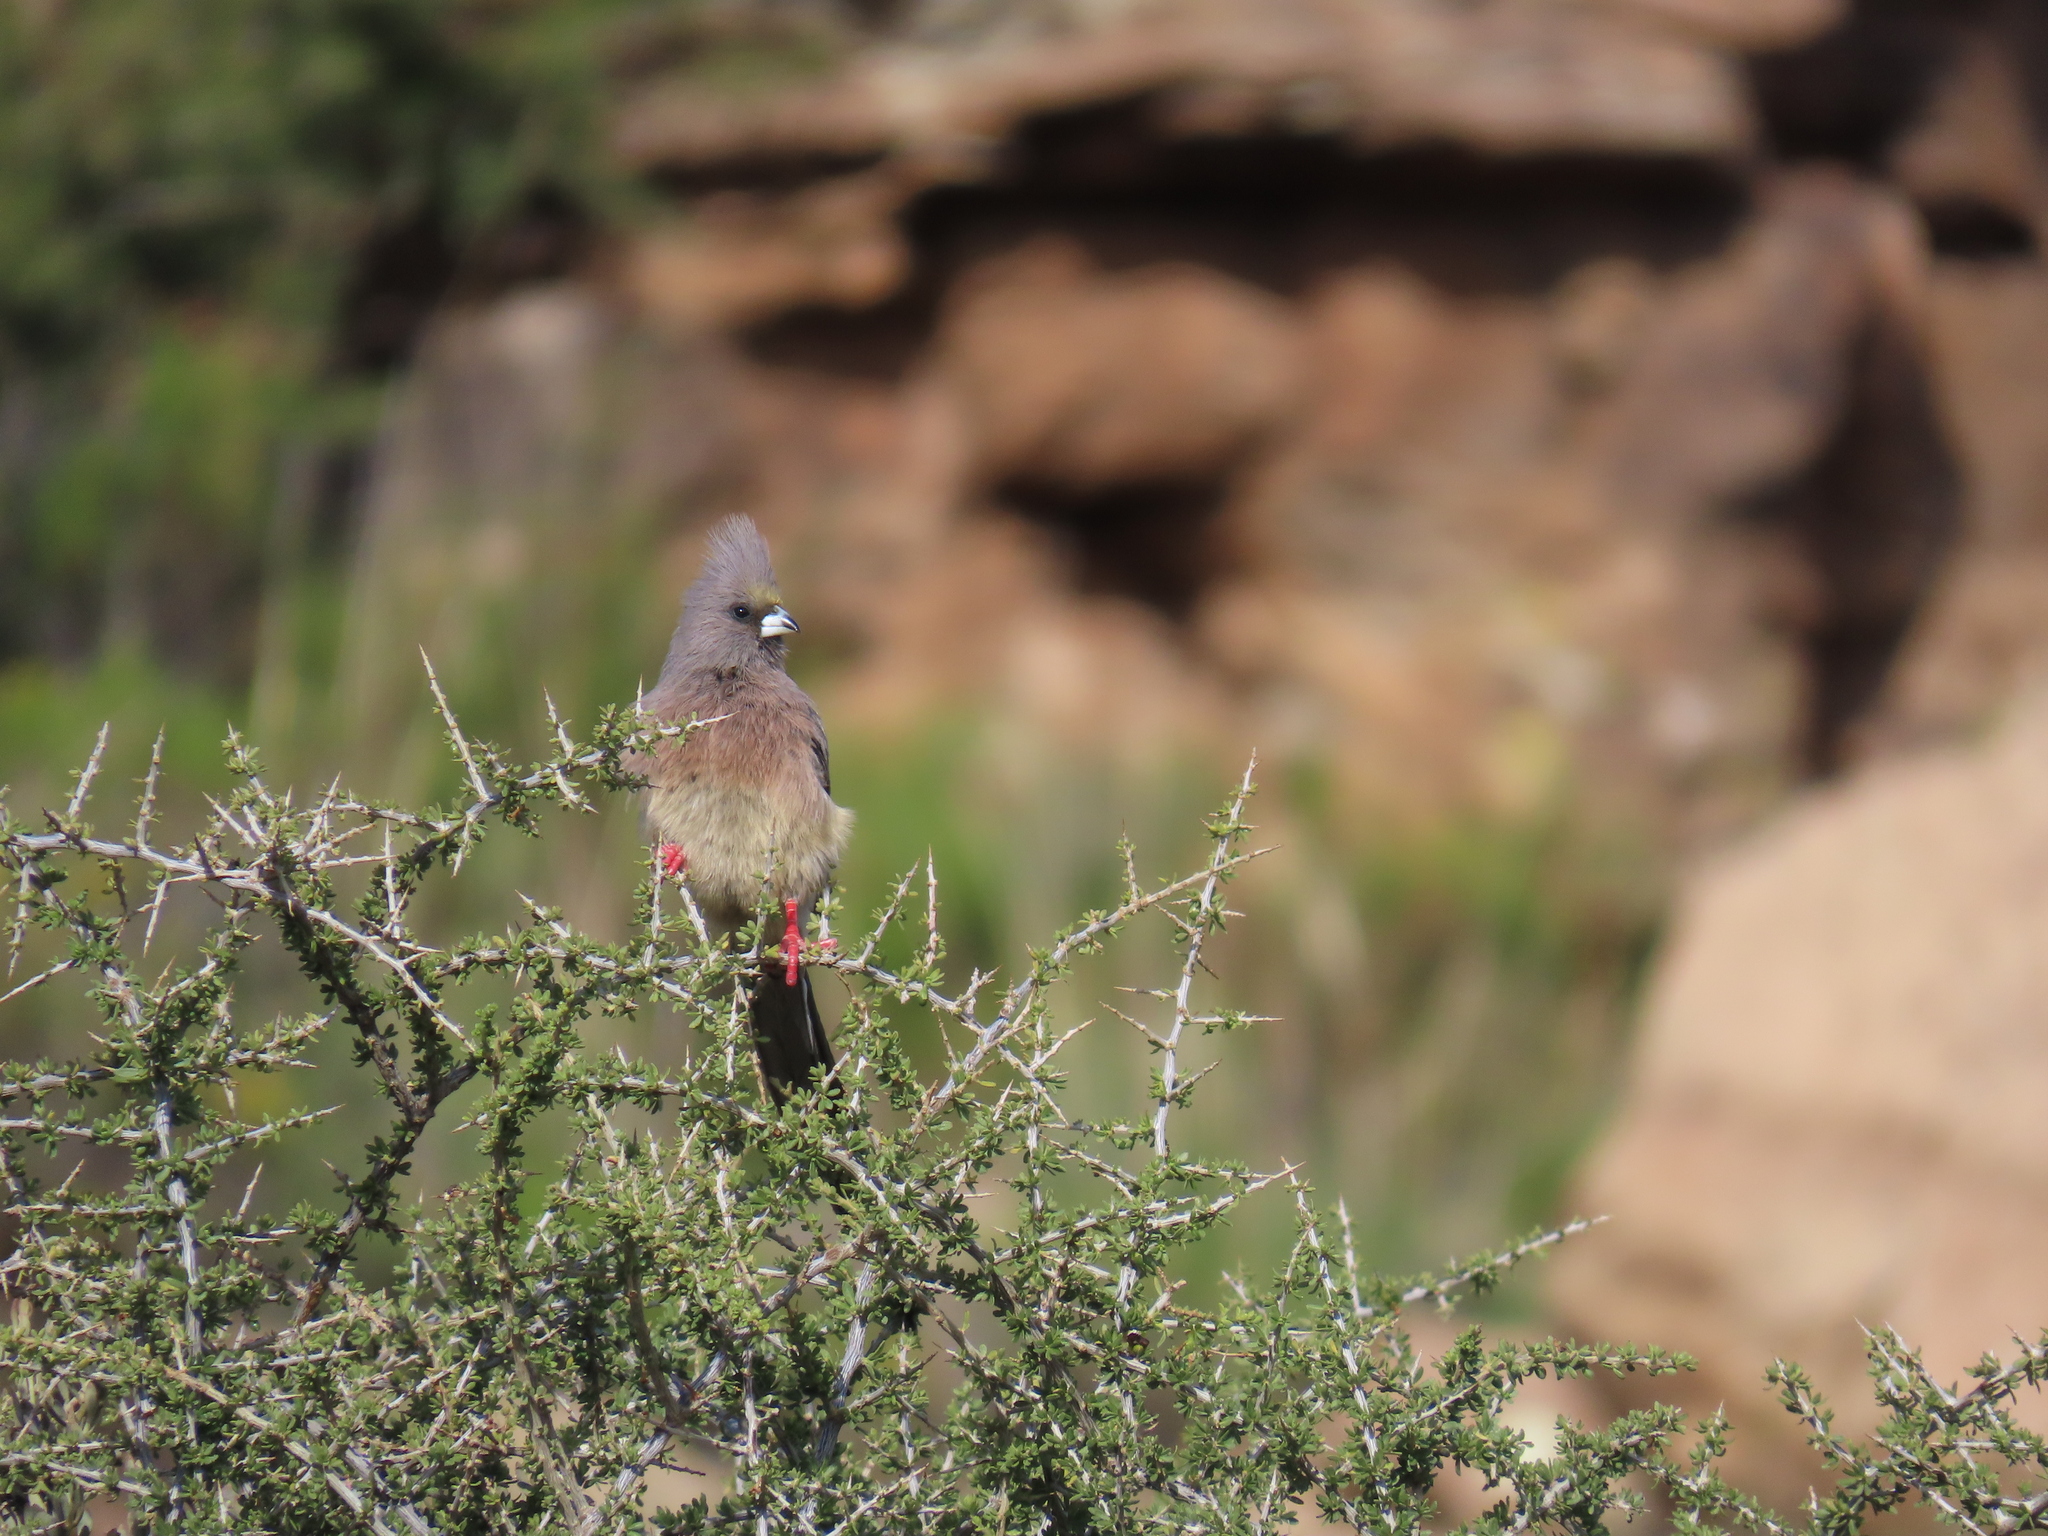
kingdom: Animalia
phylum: Chordata
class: Aves
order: Coliiformes
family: Coliidae
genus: Colius
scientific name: Colius colius
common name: White-backed mousebird
